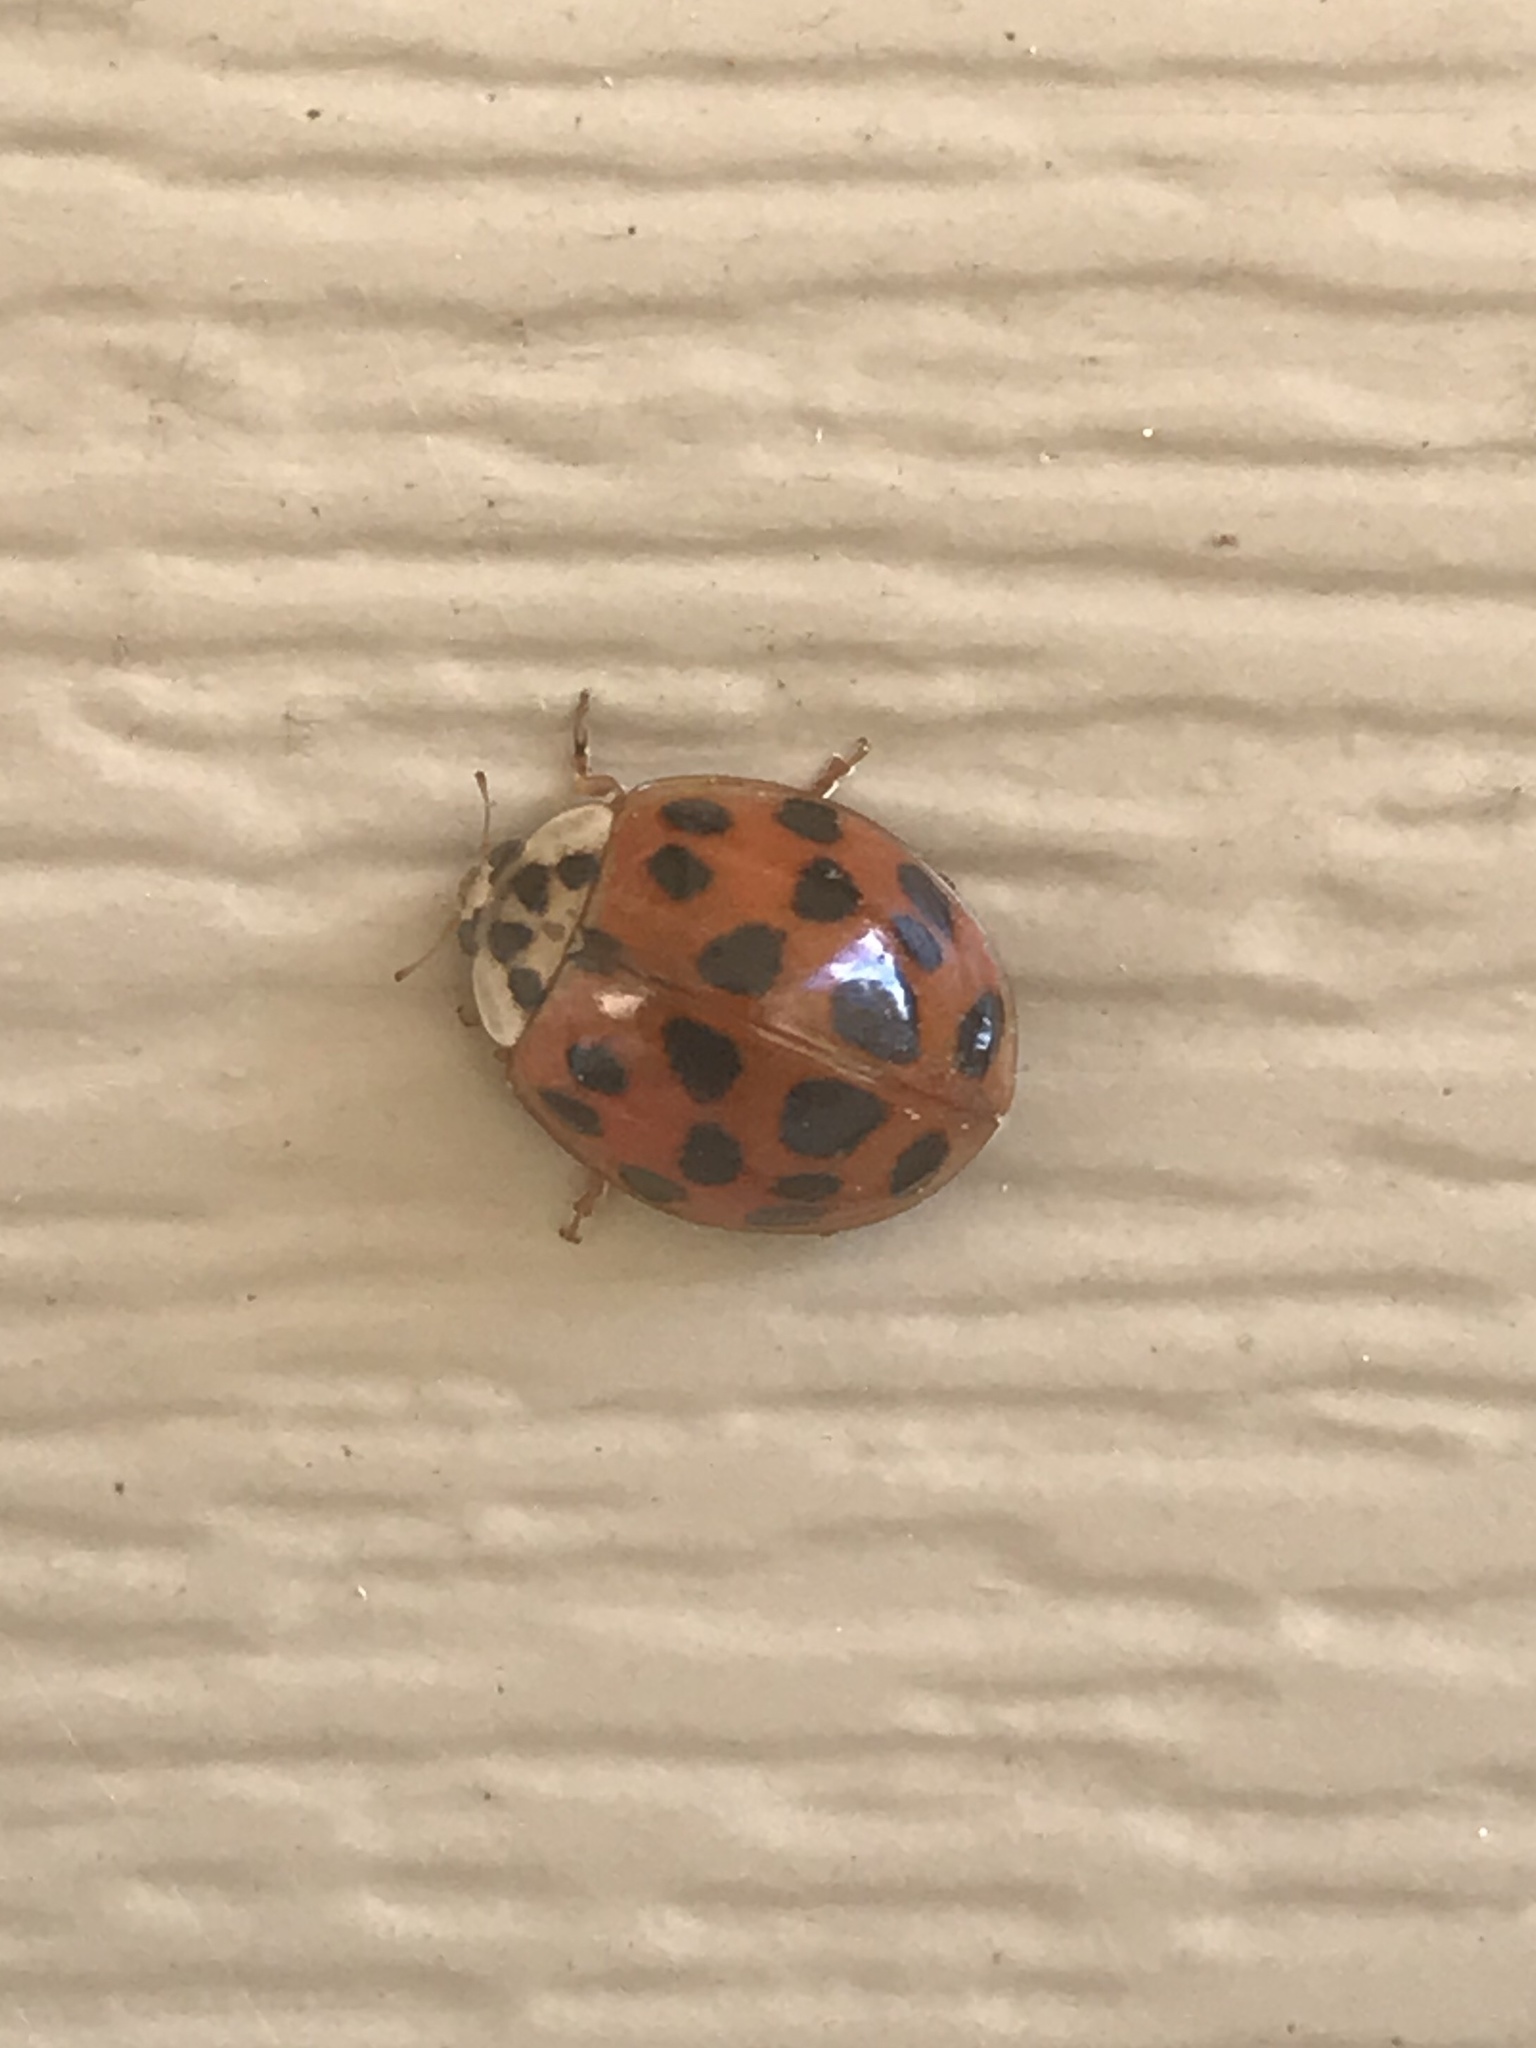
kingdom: Animalia
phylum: Arthropoda
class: Insecta
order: Coleoptera
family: Coccinellidae
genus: Harmonia
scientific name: Harmonia axyridis
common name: Harlequin ladybird
